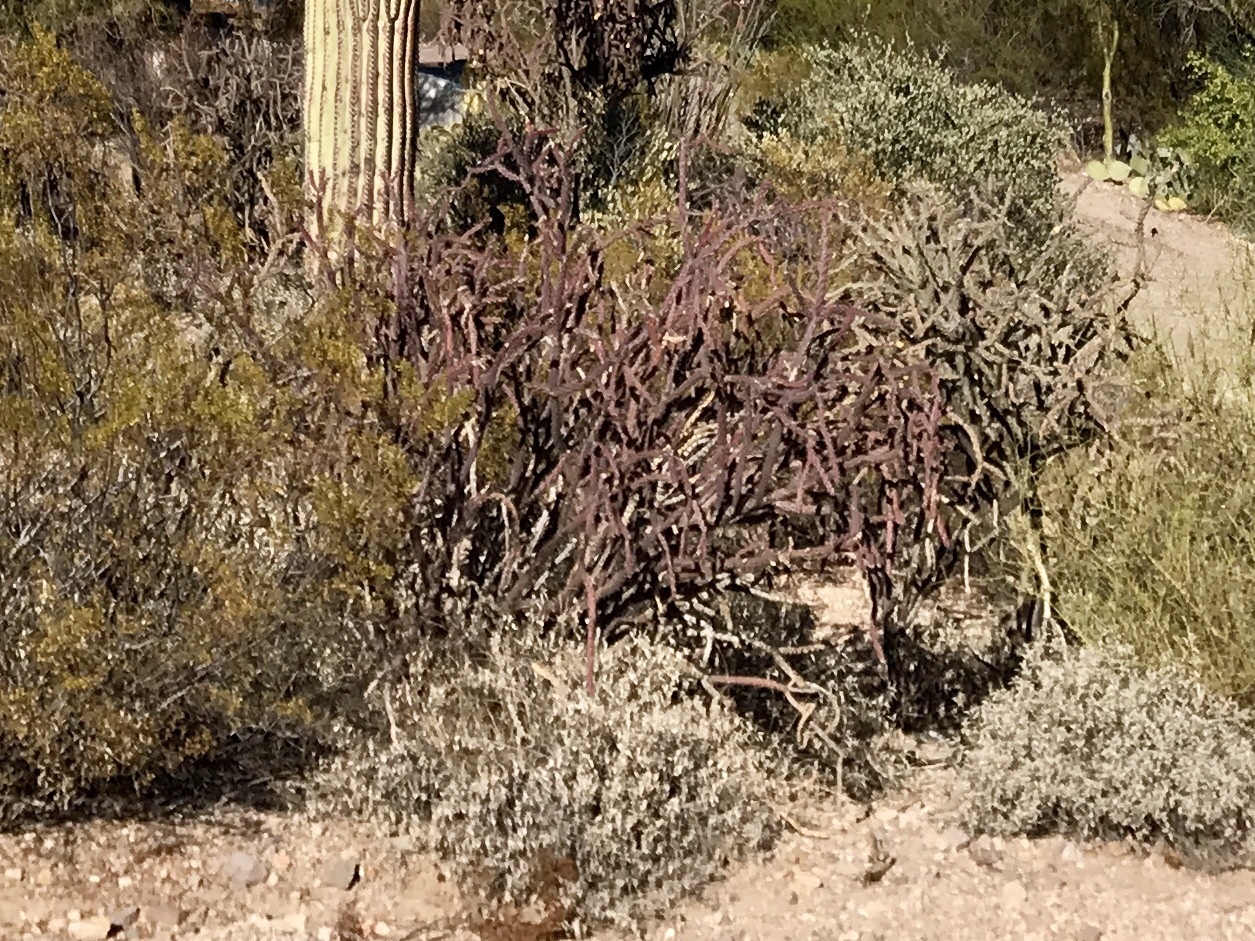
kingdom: Plantae
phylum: Tracheophyta
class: Magnoliopsida
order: Caryophyllales
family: Cactaceae
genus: Cylindropuntia
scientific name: Cylindropuntia thurberi
